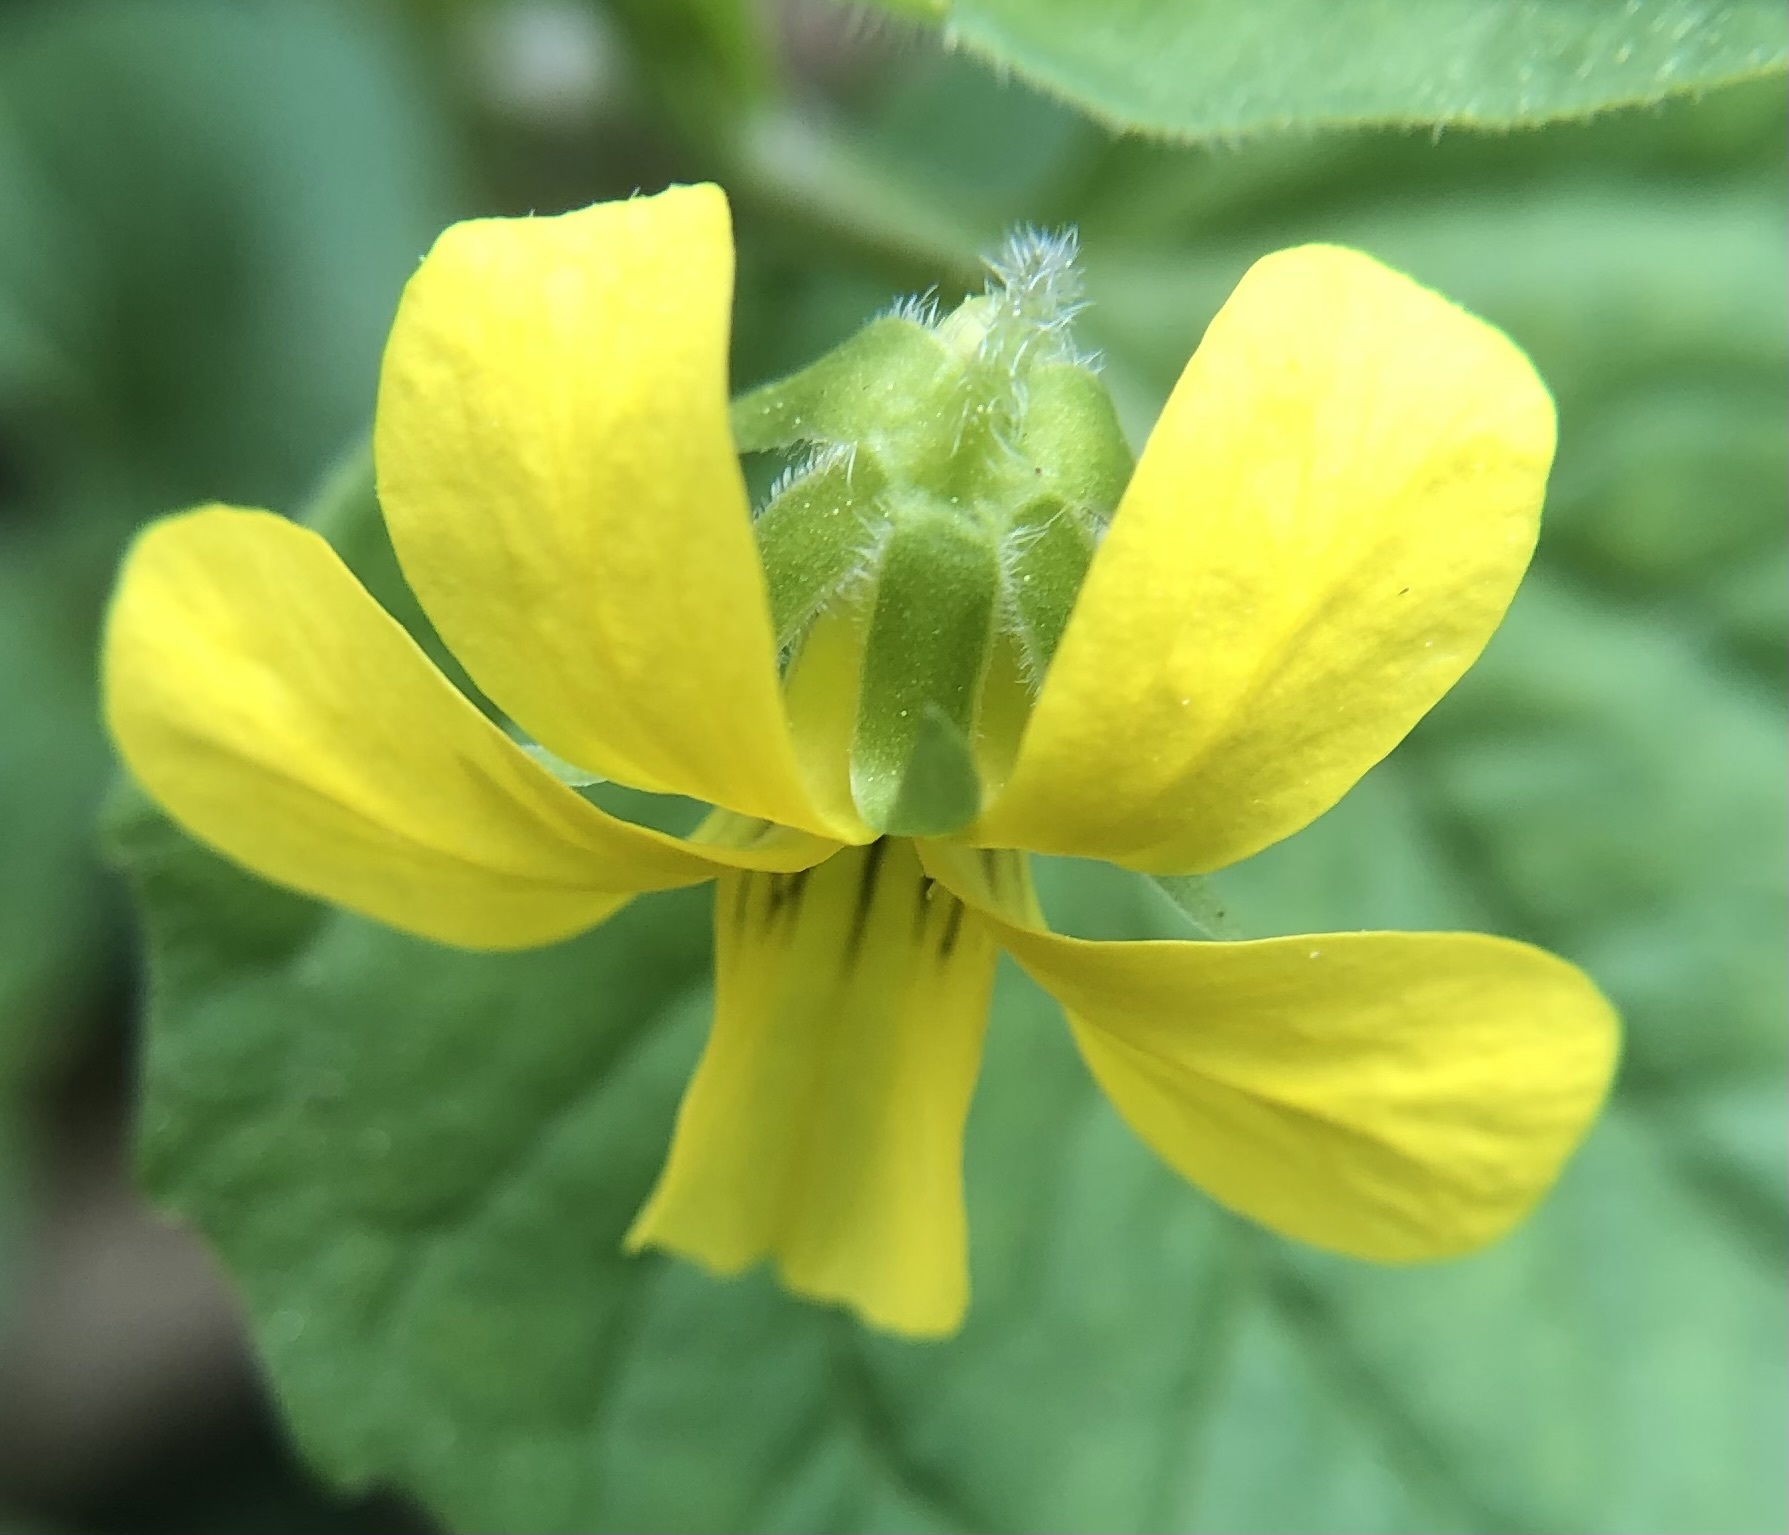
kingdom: Plantae
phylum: Tracheophyta
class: Magnoliopsida
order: Malpighiales
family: Violaceae
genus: Viola
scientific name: Viola eriocarpa
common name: Smooth yellow violet
